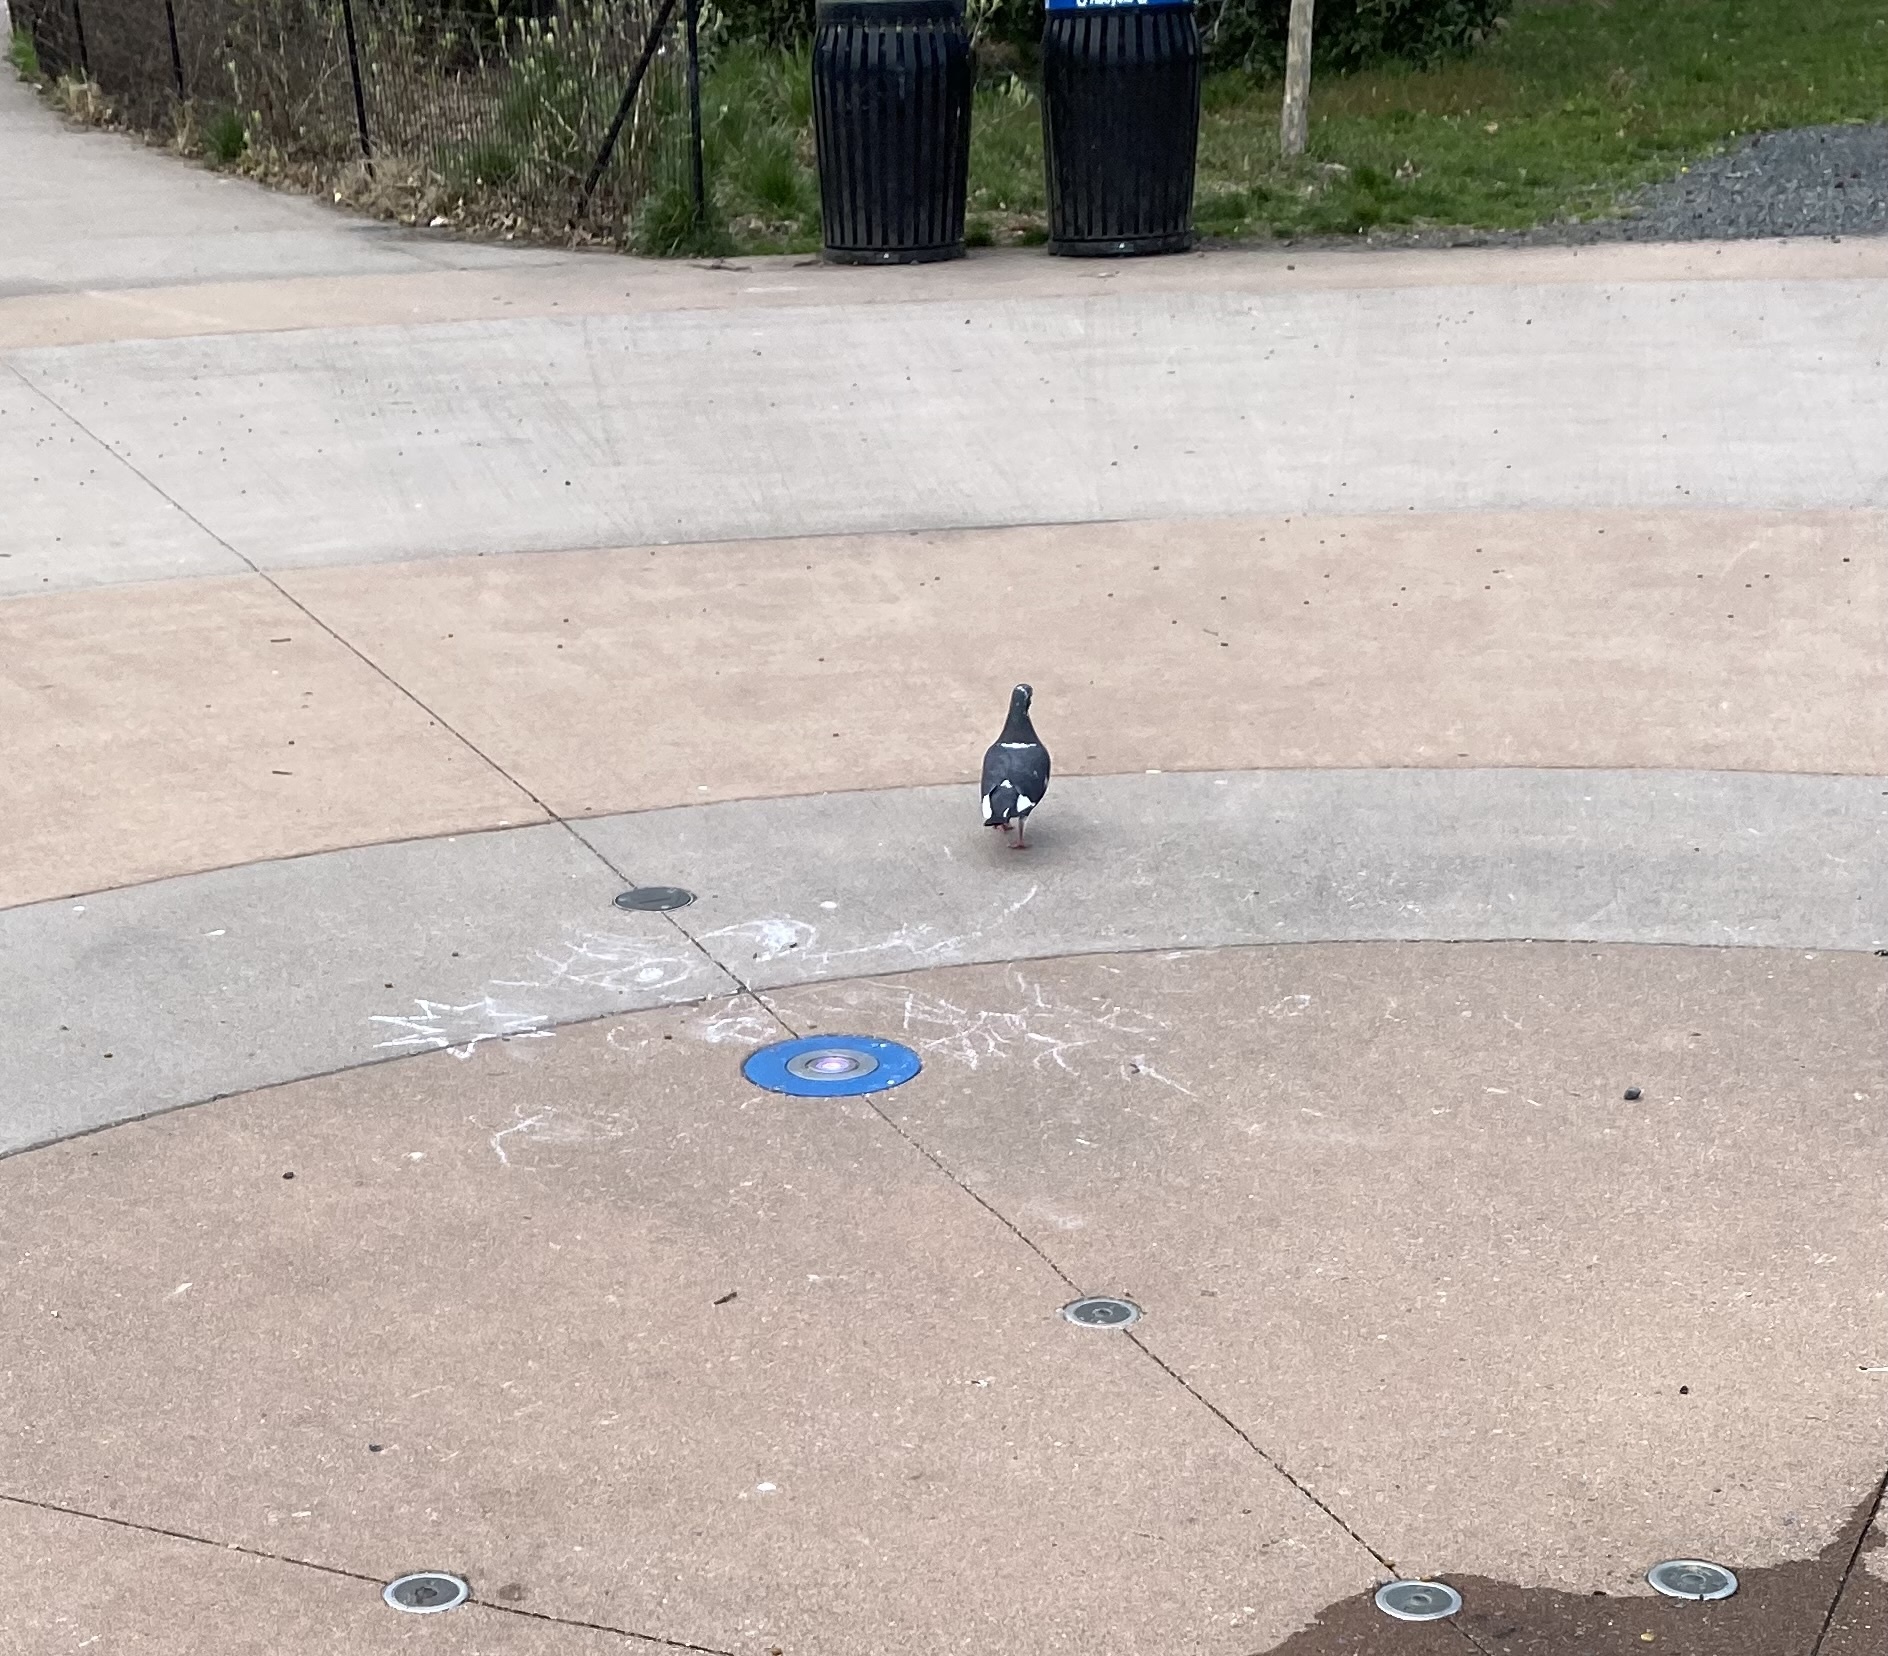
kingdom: Animalia
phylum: Chordata
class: Aves
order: Columbiformes
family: Columbidae
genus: Columba
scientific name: Columba livia
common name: Rock pigeon
